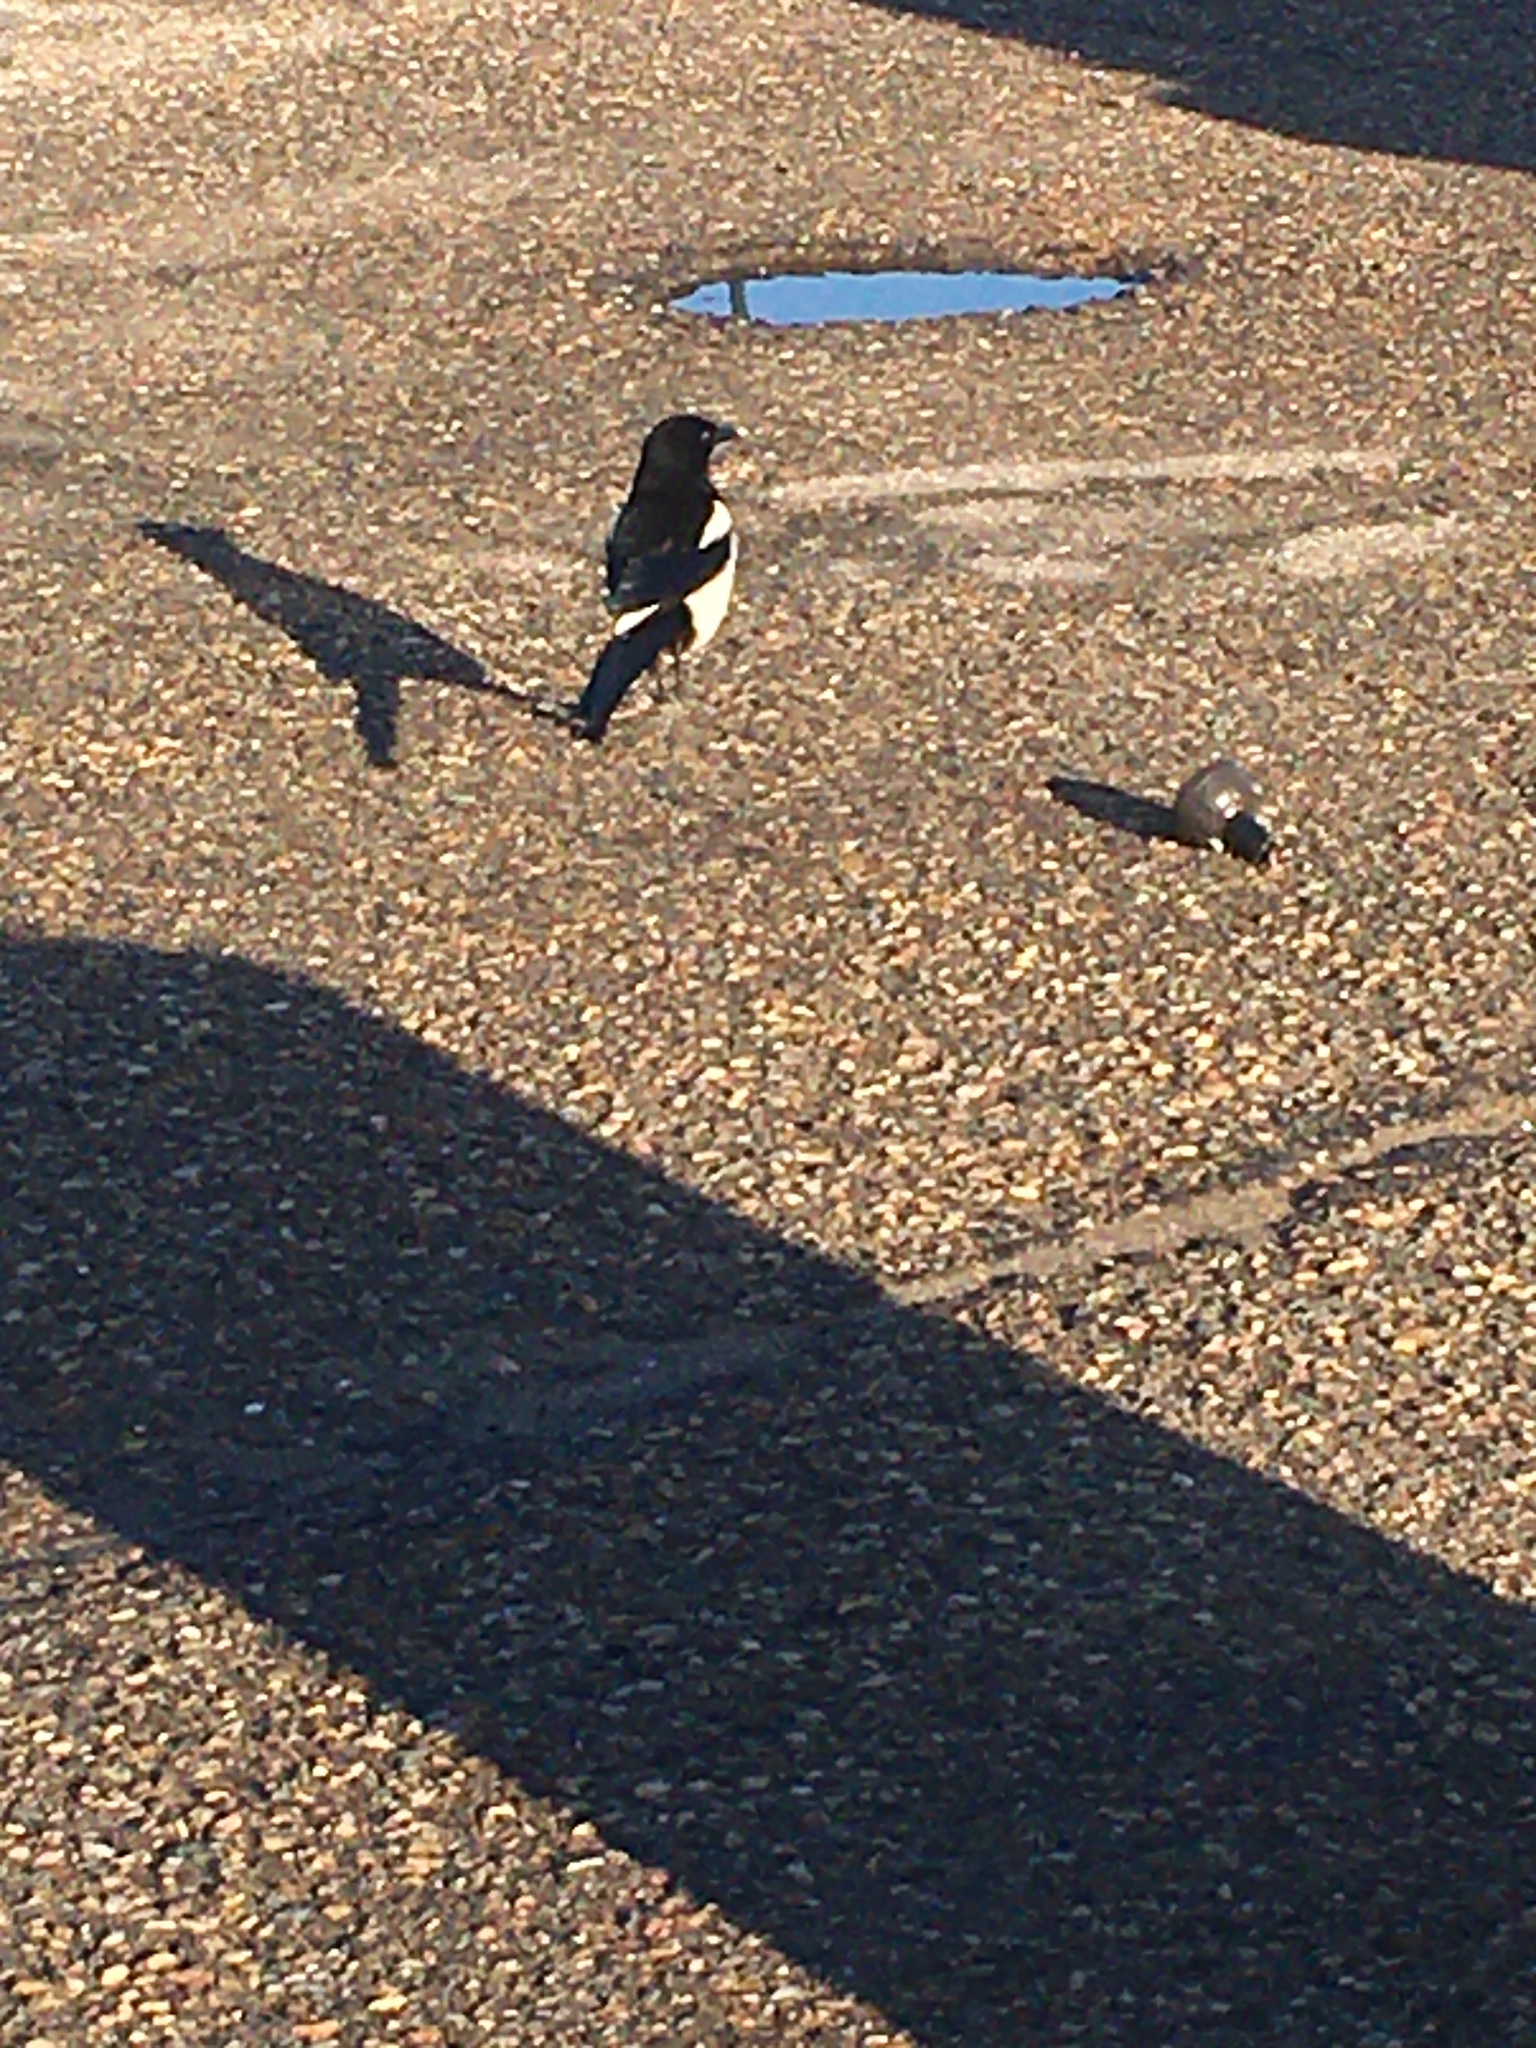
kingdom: Animalia
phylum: Chordata
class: Aves
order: Passeriformes
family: Corvidae
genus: Pica
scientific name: Pica hudsonia
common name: Black-billed magpie
